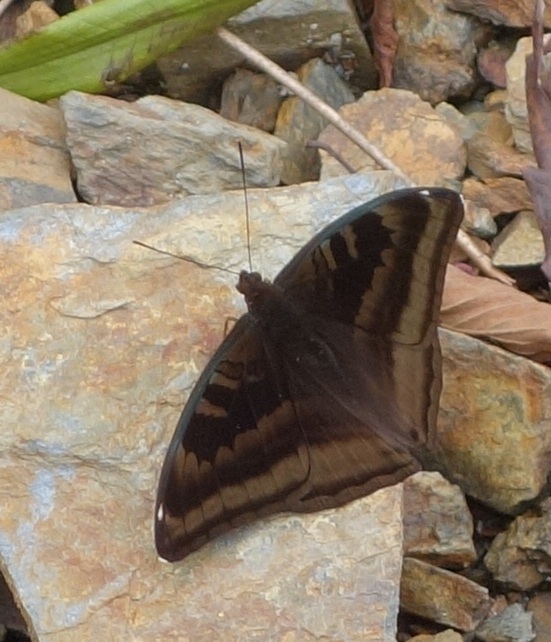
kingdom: Animalia
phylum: Arthropoda
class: Insecta
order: Lepidoptera
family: Nymphalidae
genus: Limenitis
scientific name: Limenitis Auzakia danava
